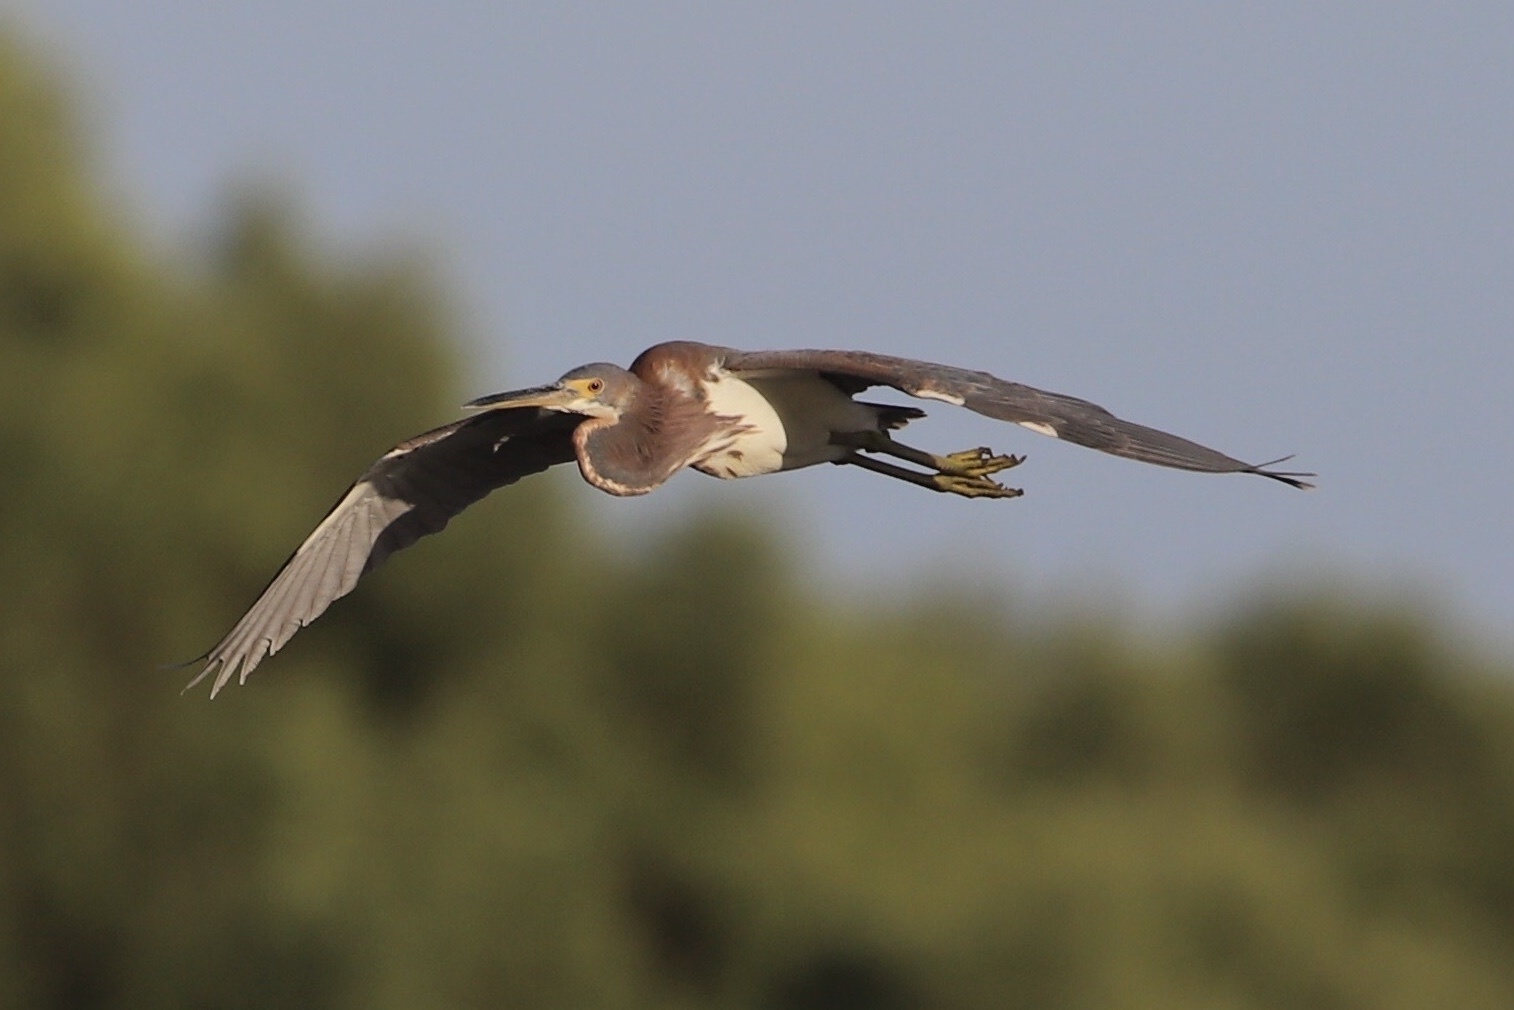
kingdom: Animalia
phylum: Chordata
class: Aves
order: Pelecaniformes
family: Ardeidae
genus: Egretta
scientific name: Egretta tricolor
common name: Tricolored heron
